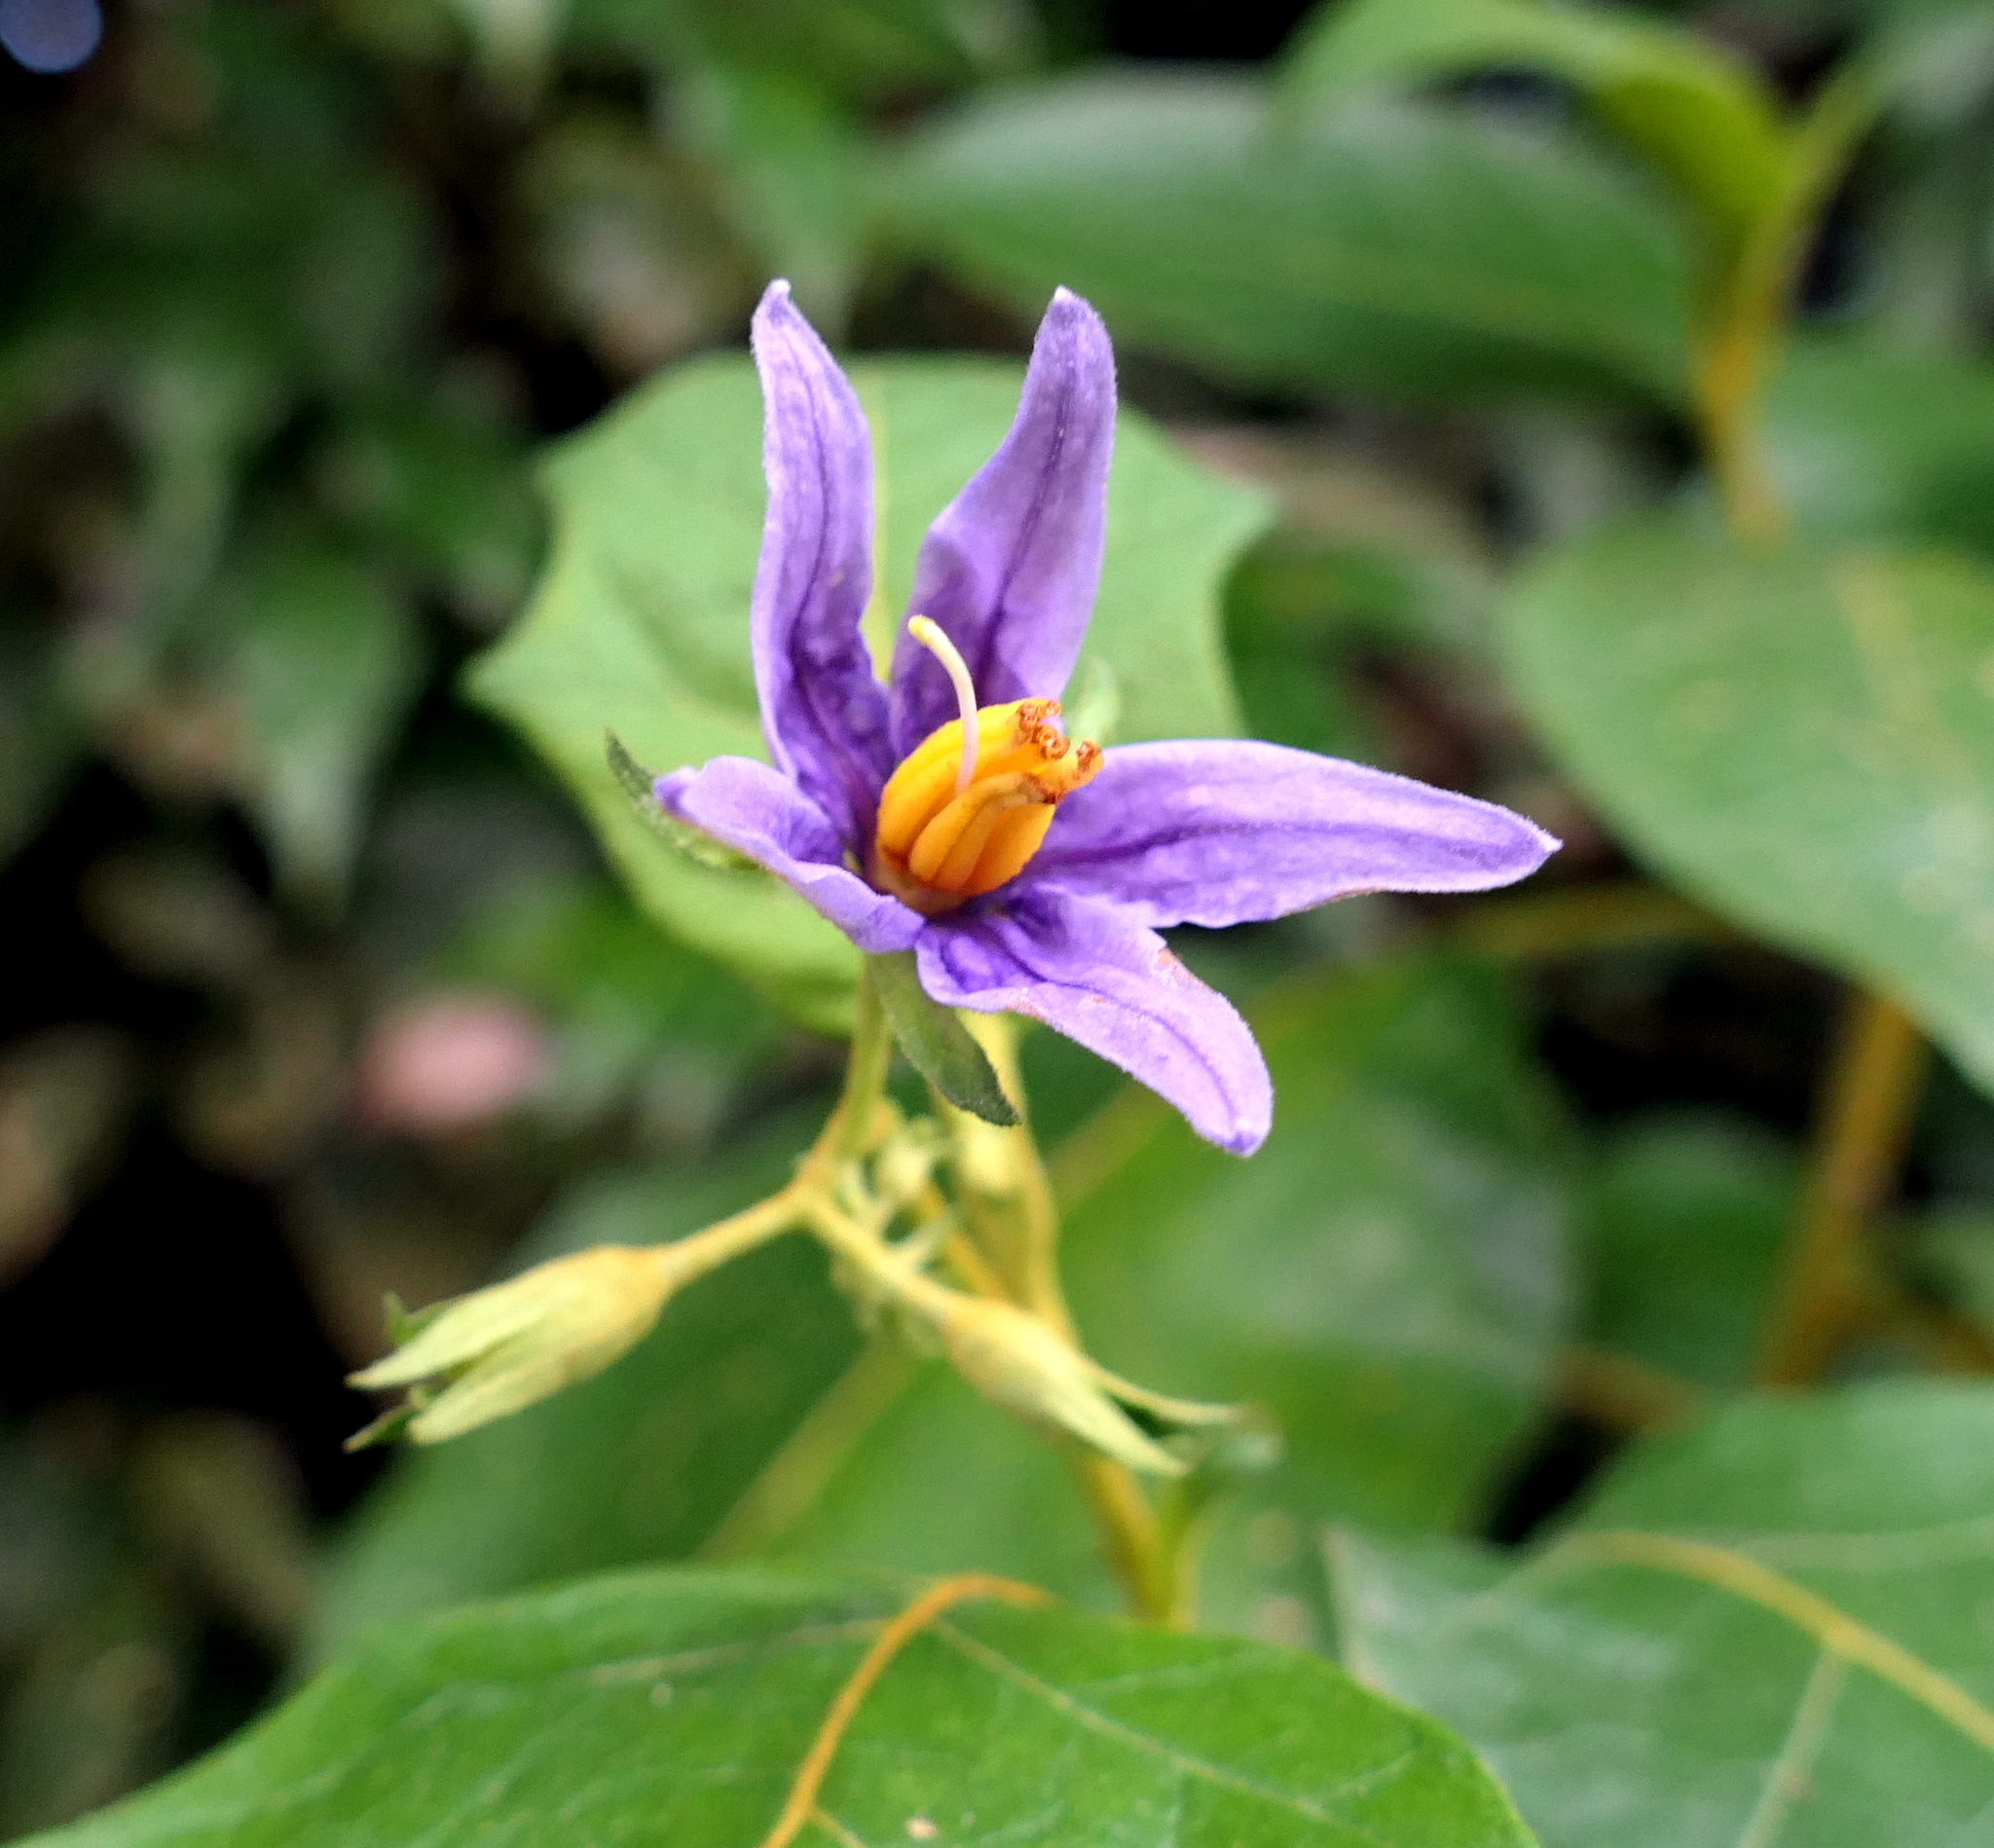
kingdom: Plantae
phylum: Tracheophyta
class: Magnoliopsida
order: Solanales
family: Solanaceae
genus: Solanum
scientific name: Solanum paludosum
